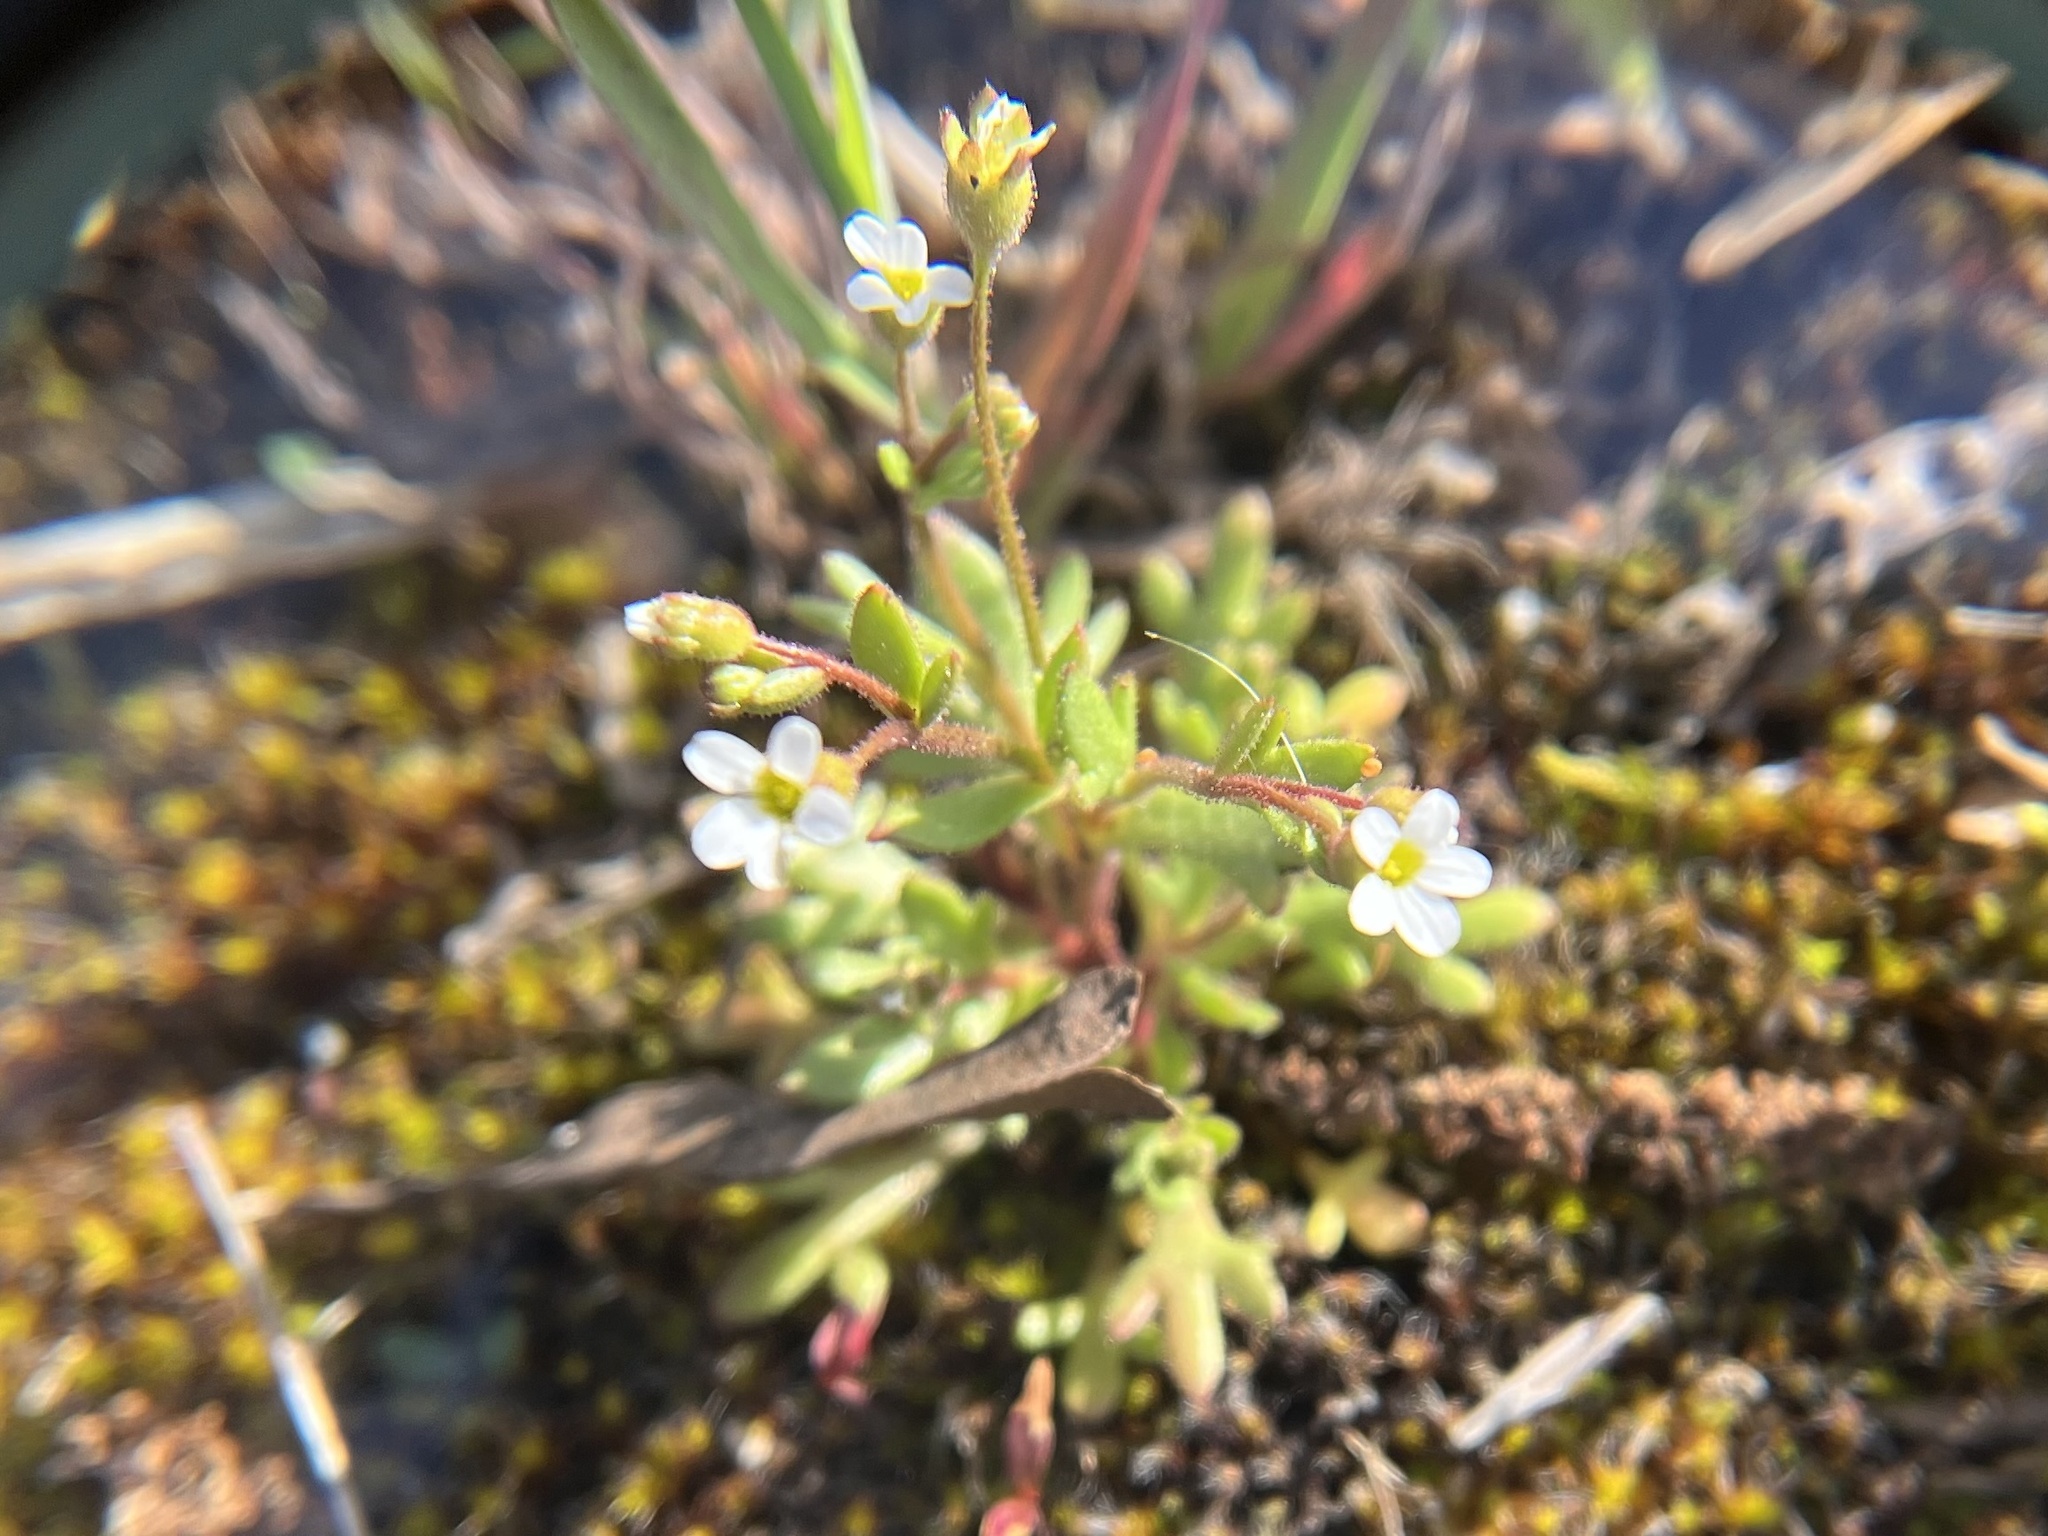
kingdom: Plantae
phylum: Tracheophyta
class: Magnoliopsida
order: Saxifragales
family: Saxifragaceae
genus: Saxifraga
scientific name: Saxifraga tridactylites
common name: Rue-leaved saxifrage
